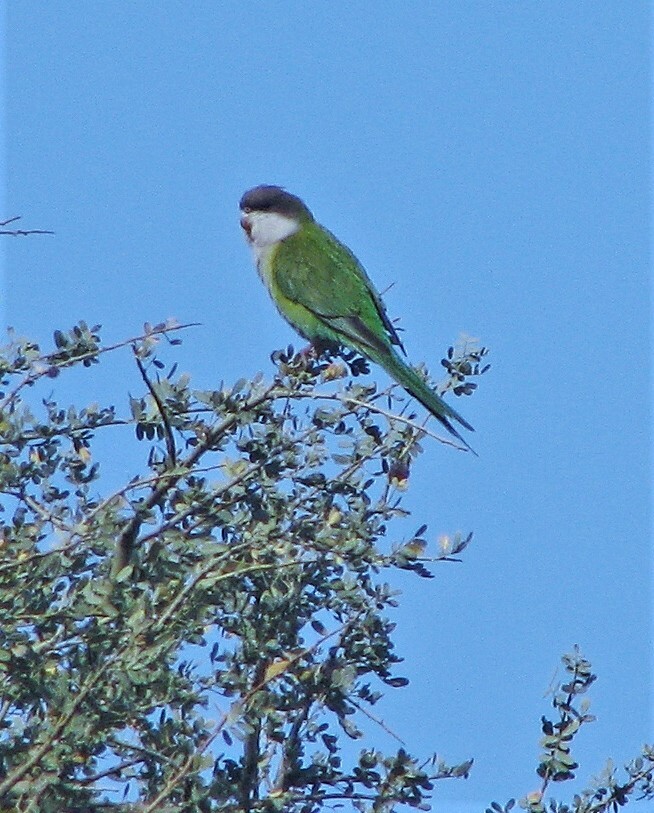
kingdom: Animalia
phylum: Chordata
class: Aves
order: Psittaciformes
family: Psittacidae
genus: Psilopsiagon
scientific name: Psilopsiagon aymara
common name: Grey-hooded parakeet
